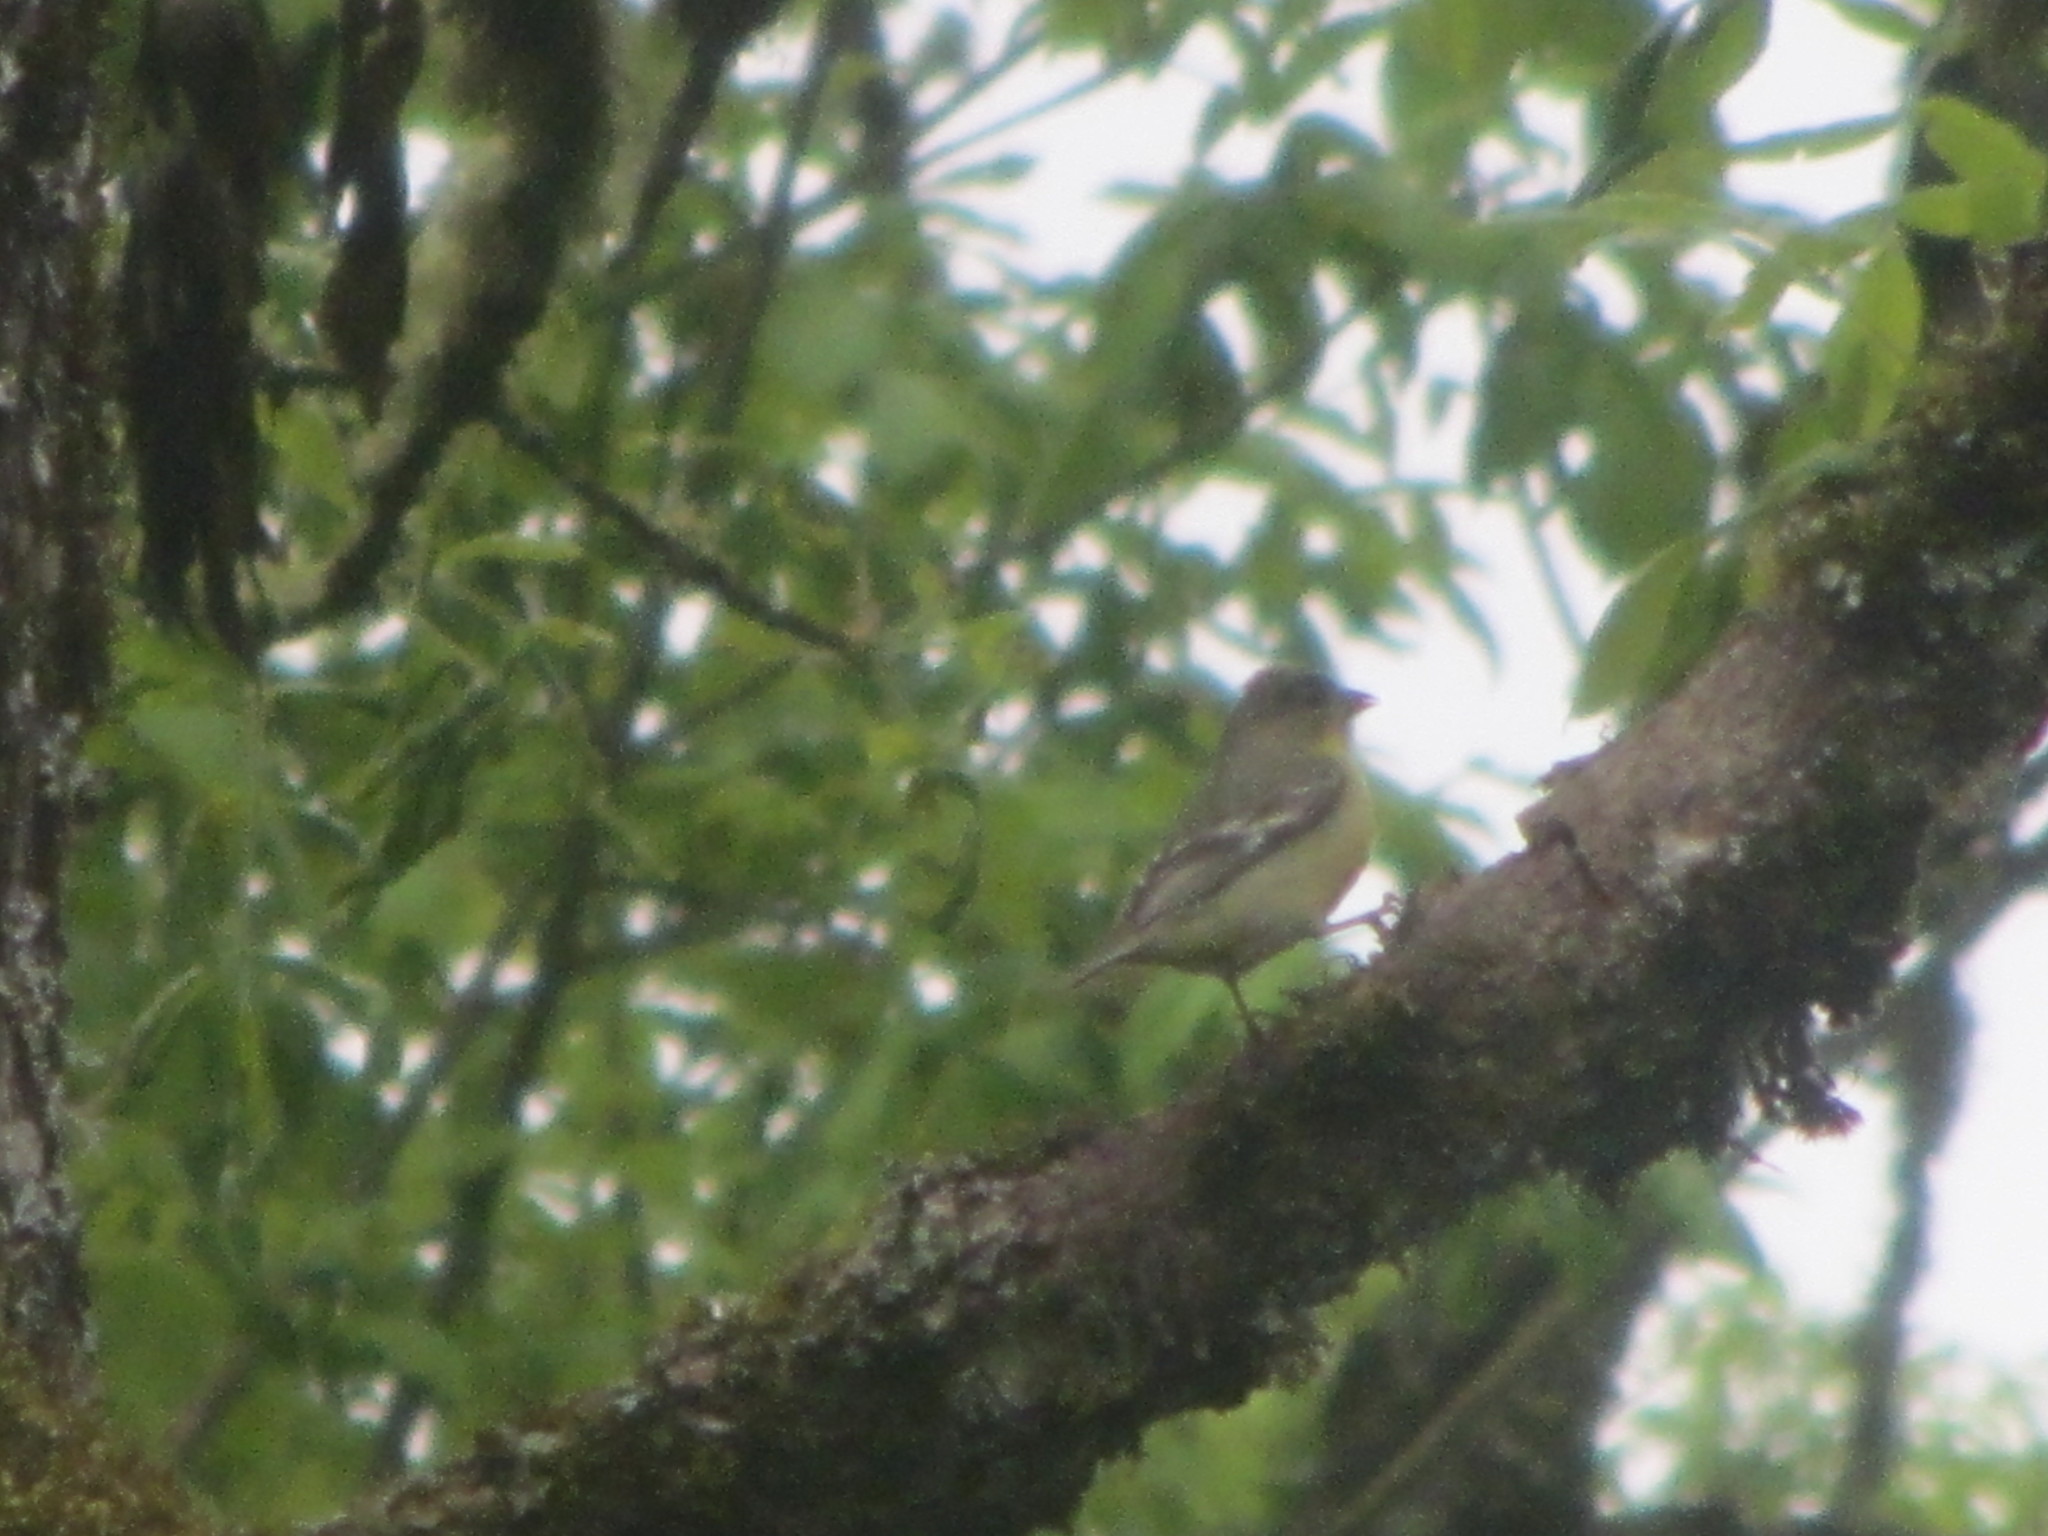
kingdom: Animalia
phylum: Chordata
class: Aves
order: Passeriformes
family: Fringillidae
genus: Spinus
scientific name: Spinus psaltria
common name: Lesser goldfinch
